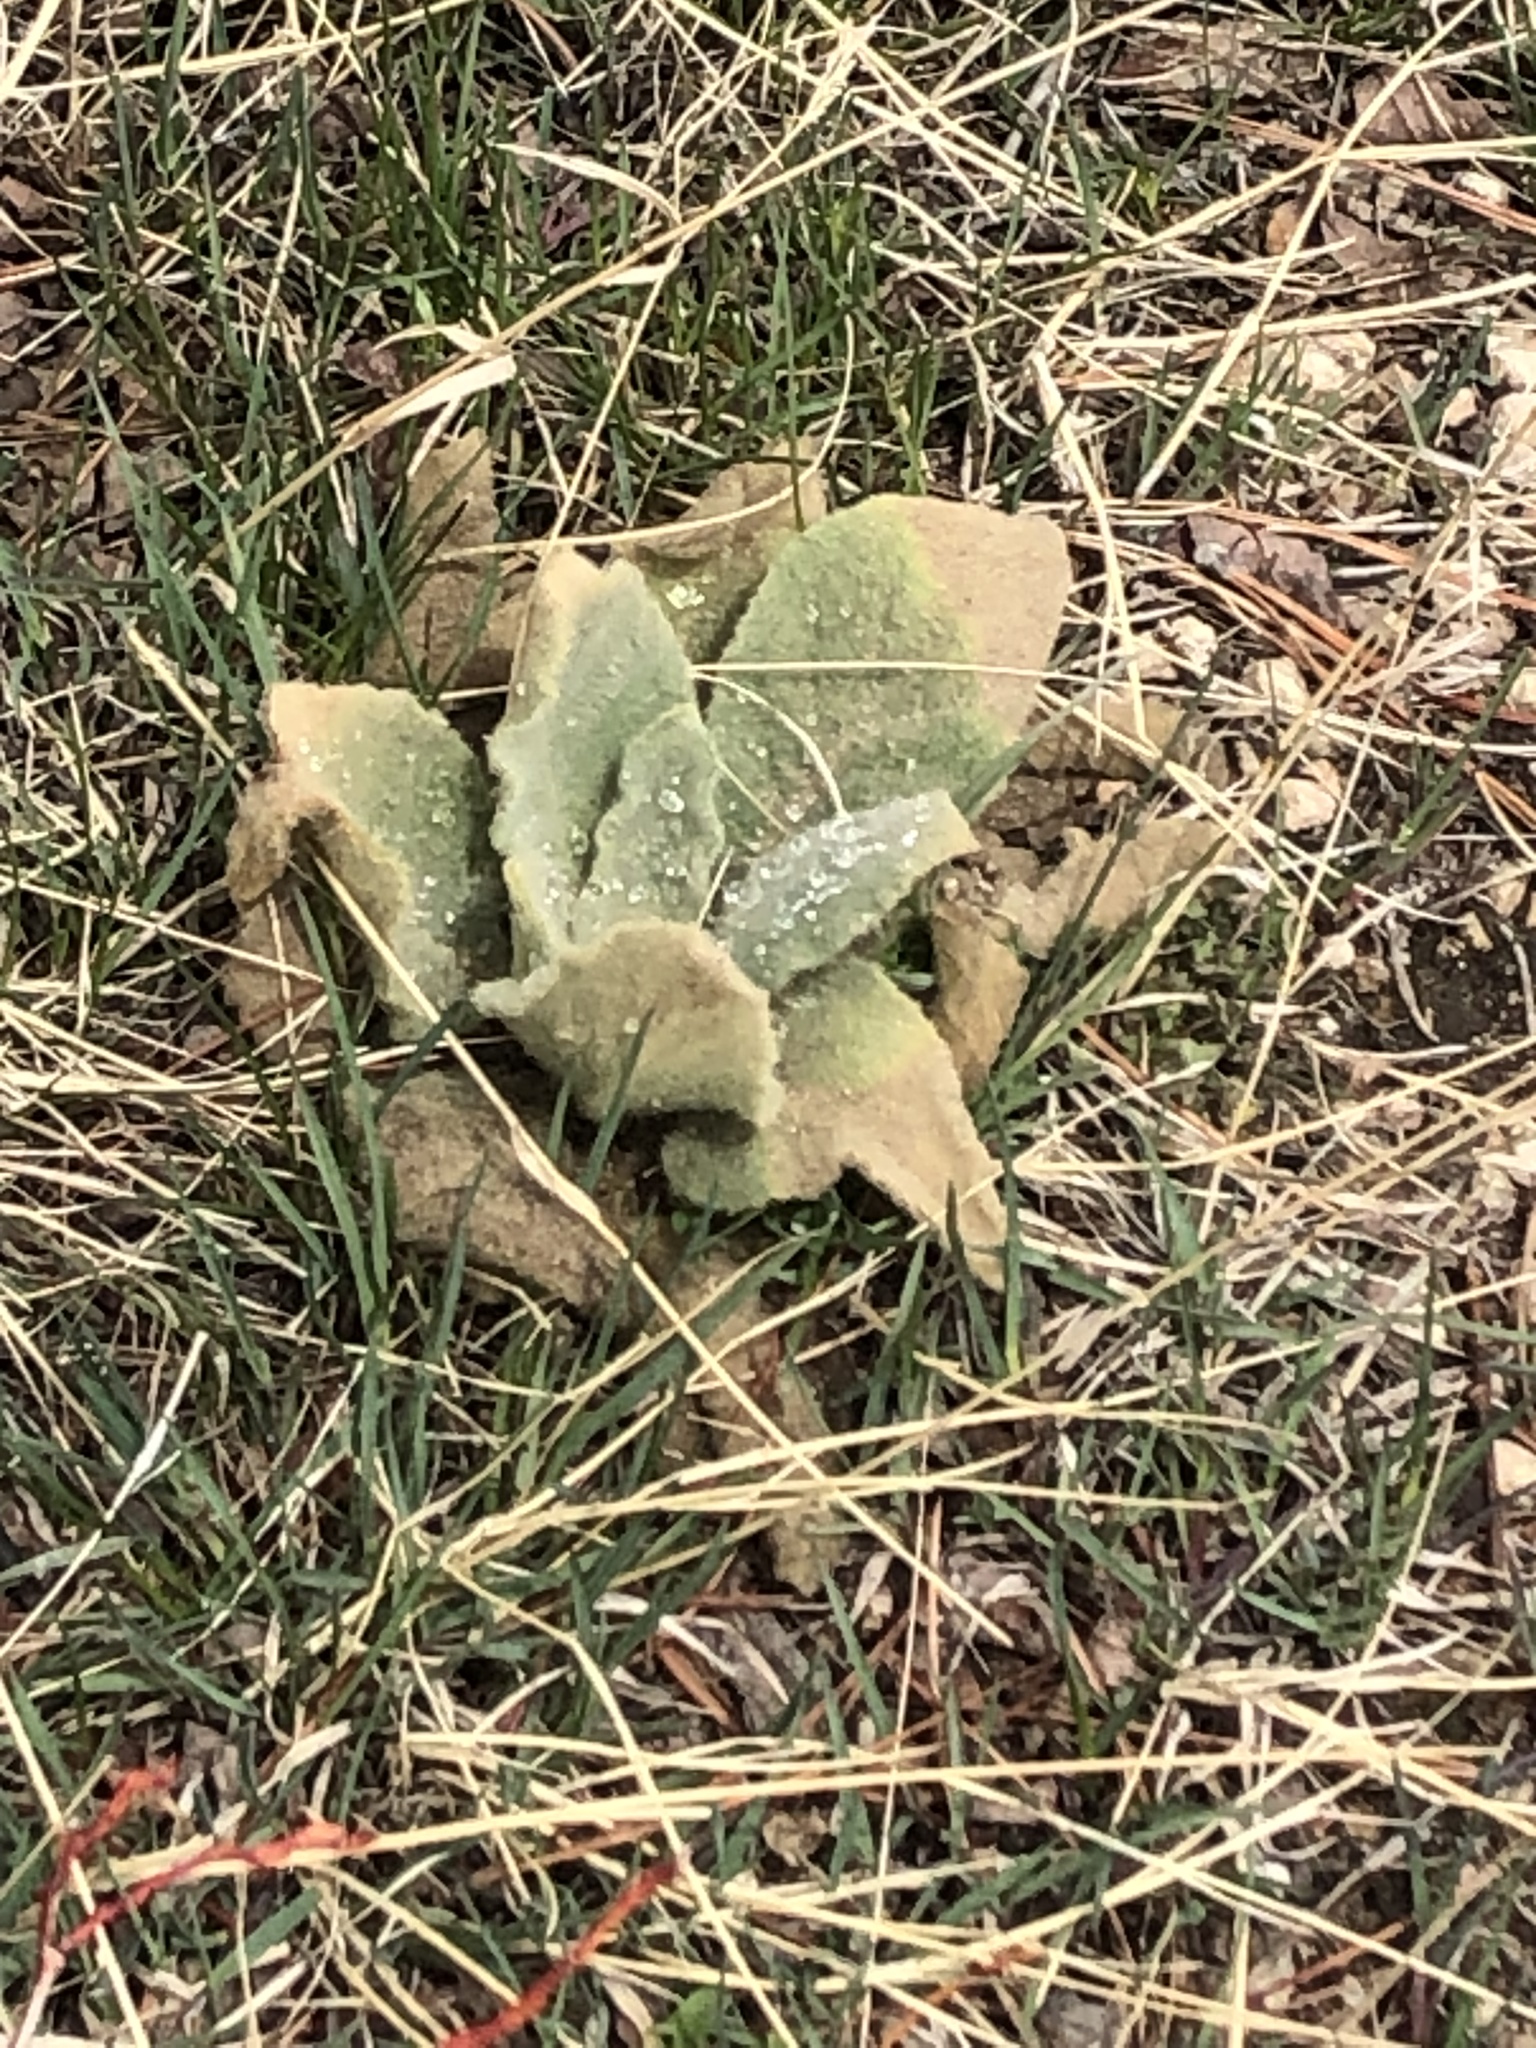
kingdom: Plantae
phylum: Tracheophyta
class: Magnoliopsida
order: Lamiales
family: Scrophulariaceae
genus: Verbascum
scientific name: Verbascum thapsus
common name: Common mullein
